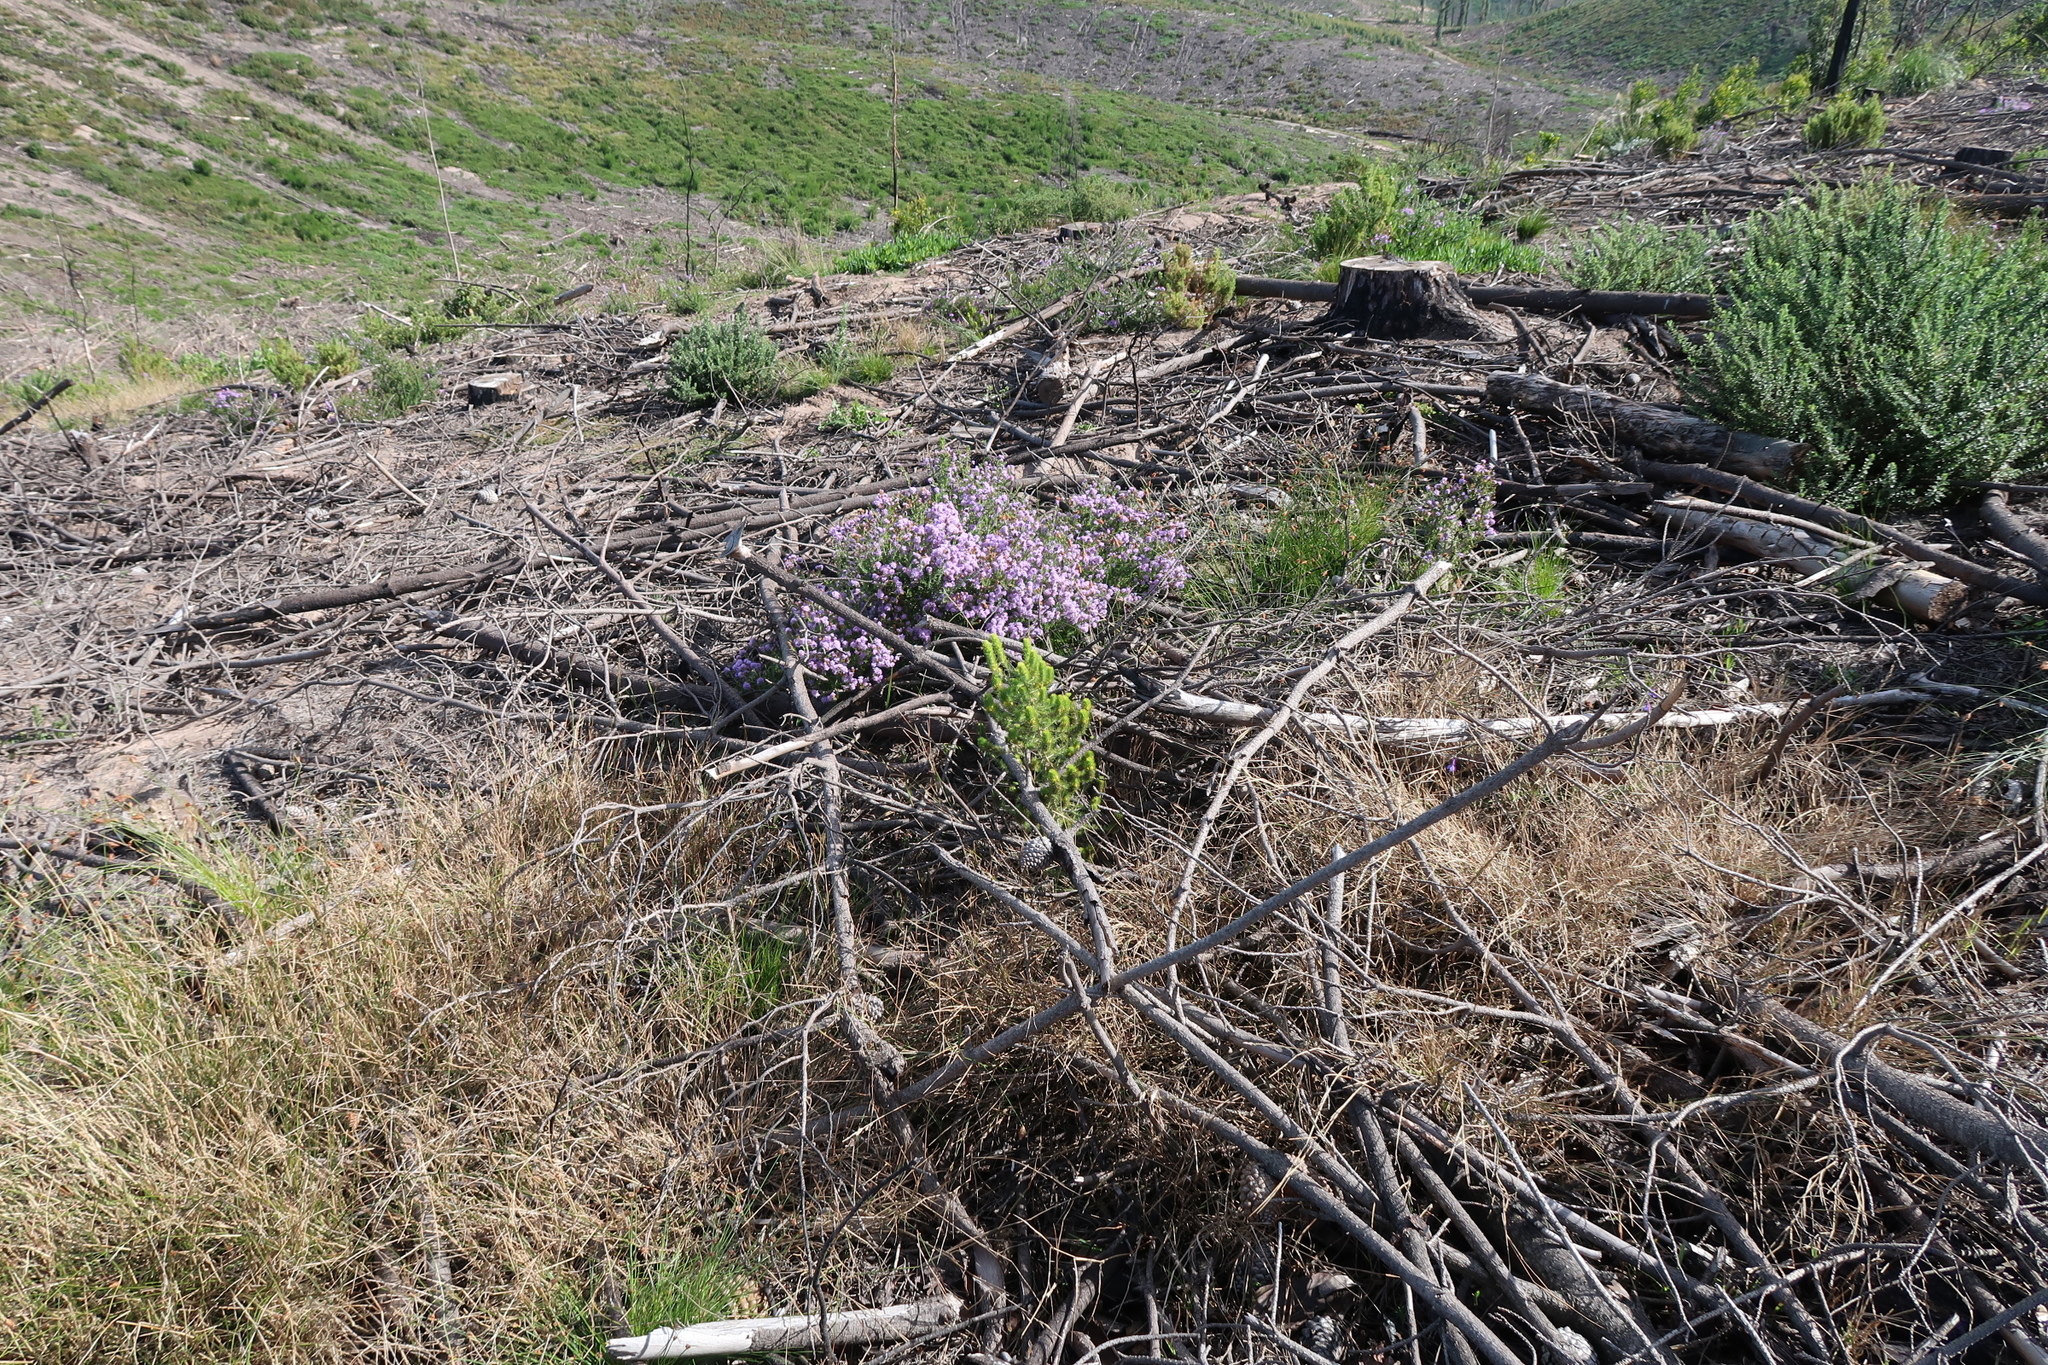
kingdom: Plantae
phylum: Tracheophyta
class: Magnoliopsida
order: Lamiales
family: Scrophulariaceae
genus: Selago
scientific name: Selago burchellii
